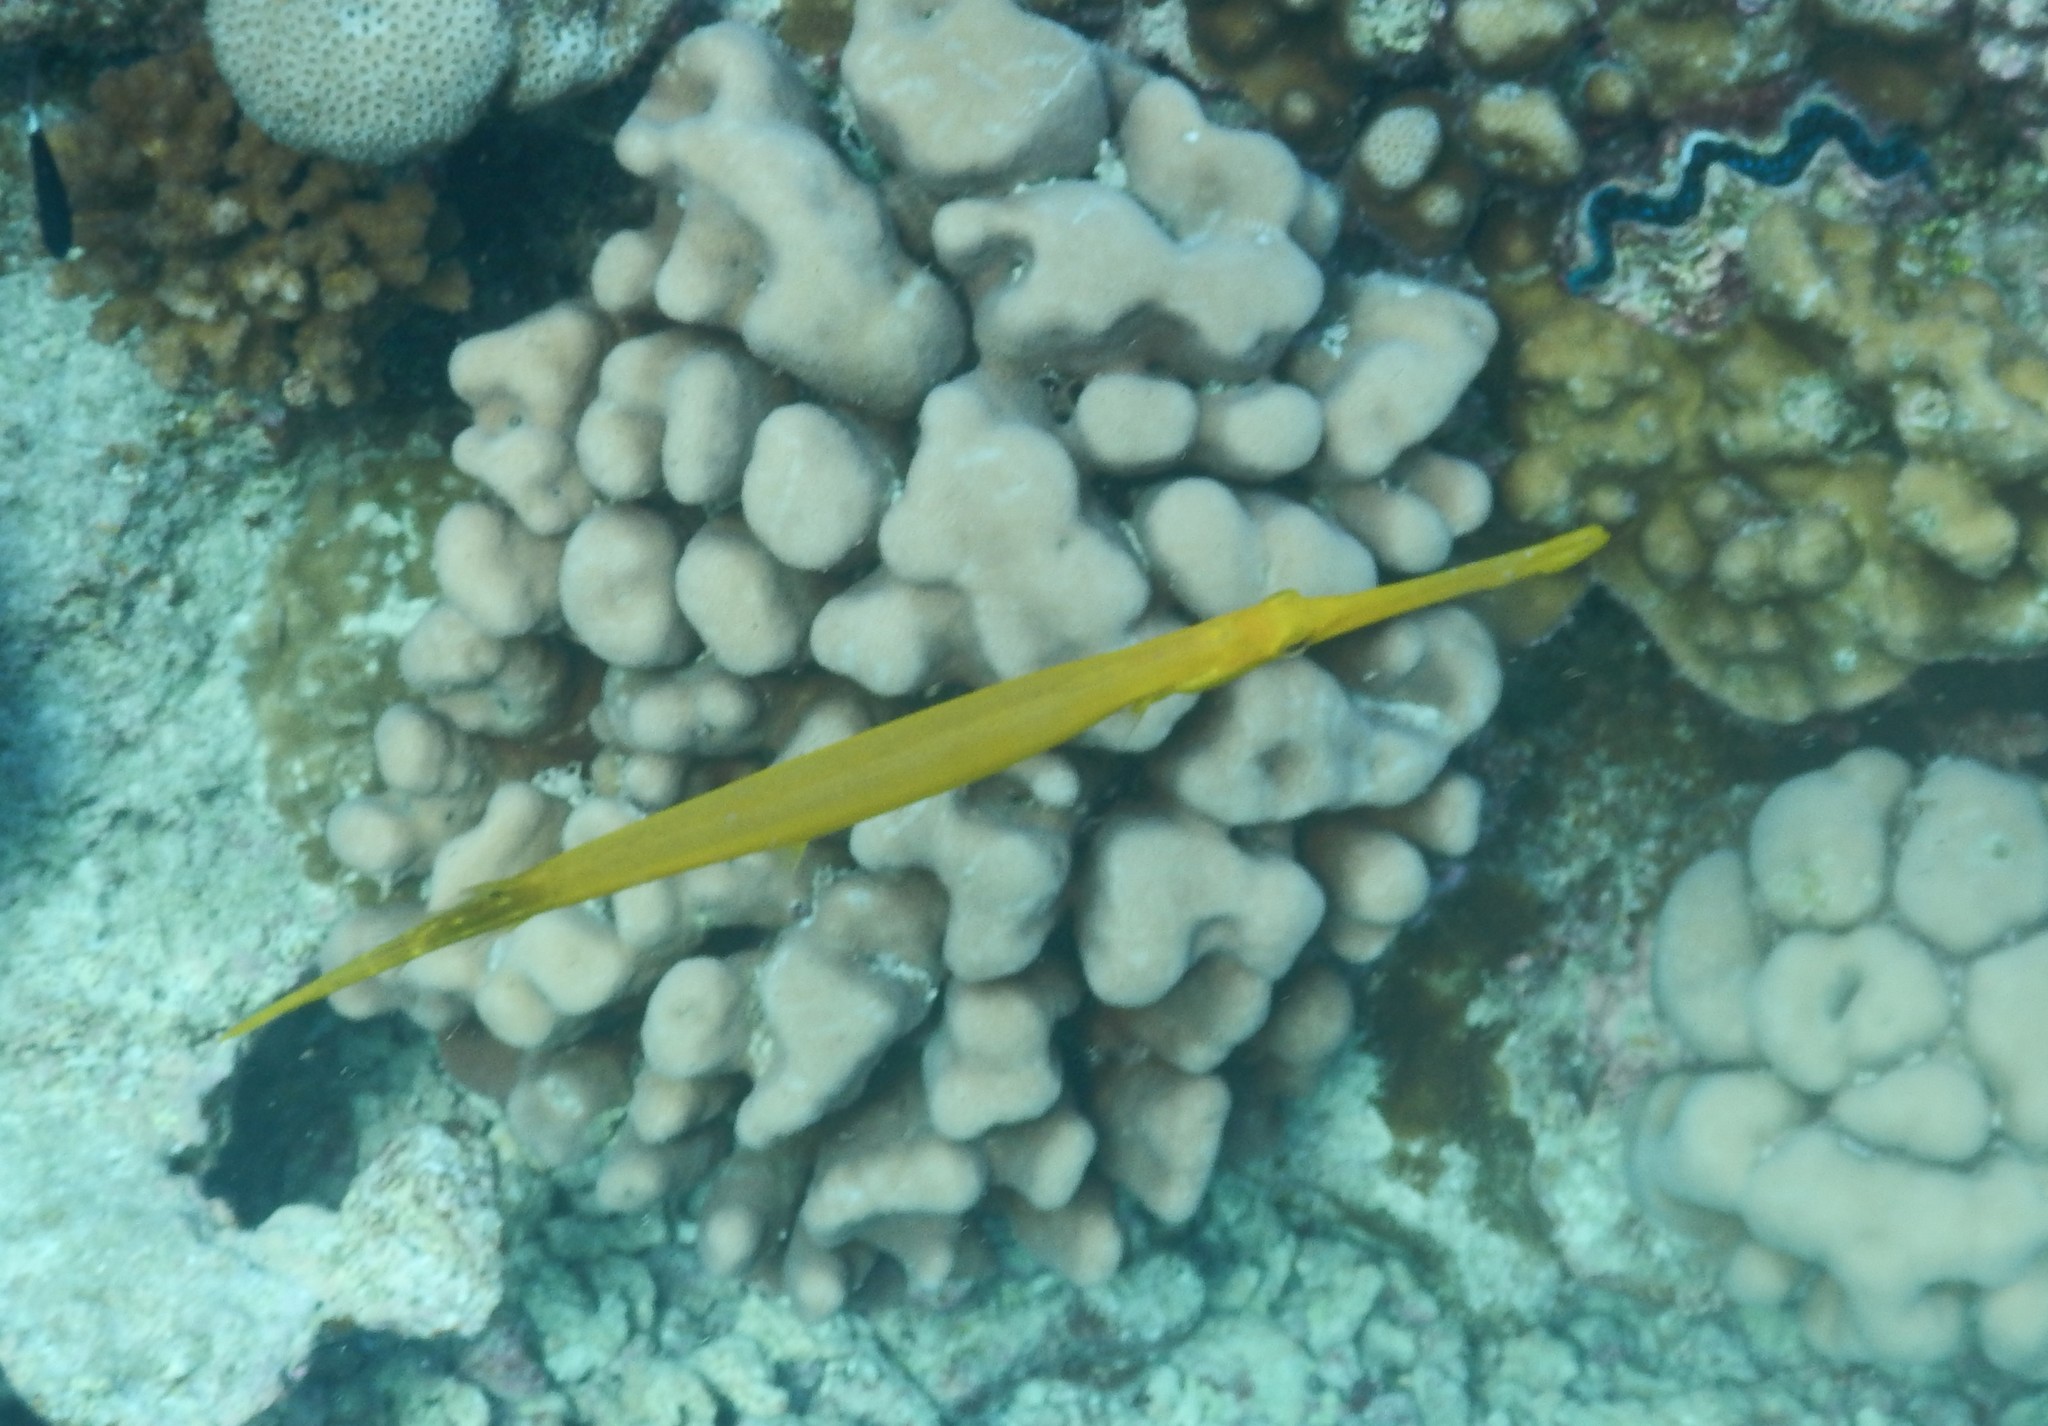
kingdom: Animalia
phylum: Chordata
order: Syngnathiformes
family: Aulostomidae
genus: Aulostomus
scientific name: Aulostomus chinensis
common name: Chinese trumpetfish
